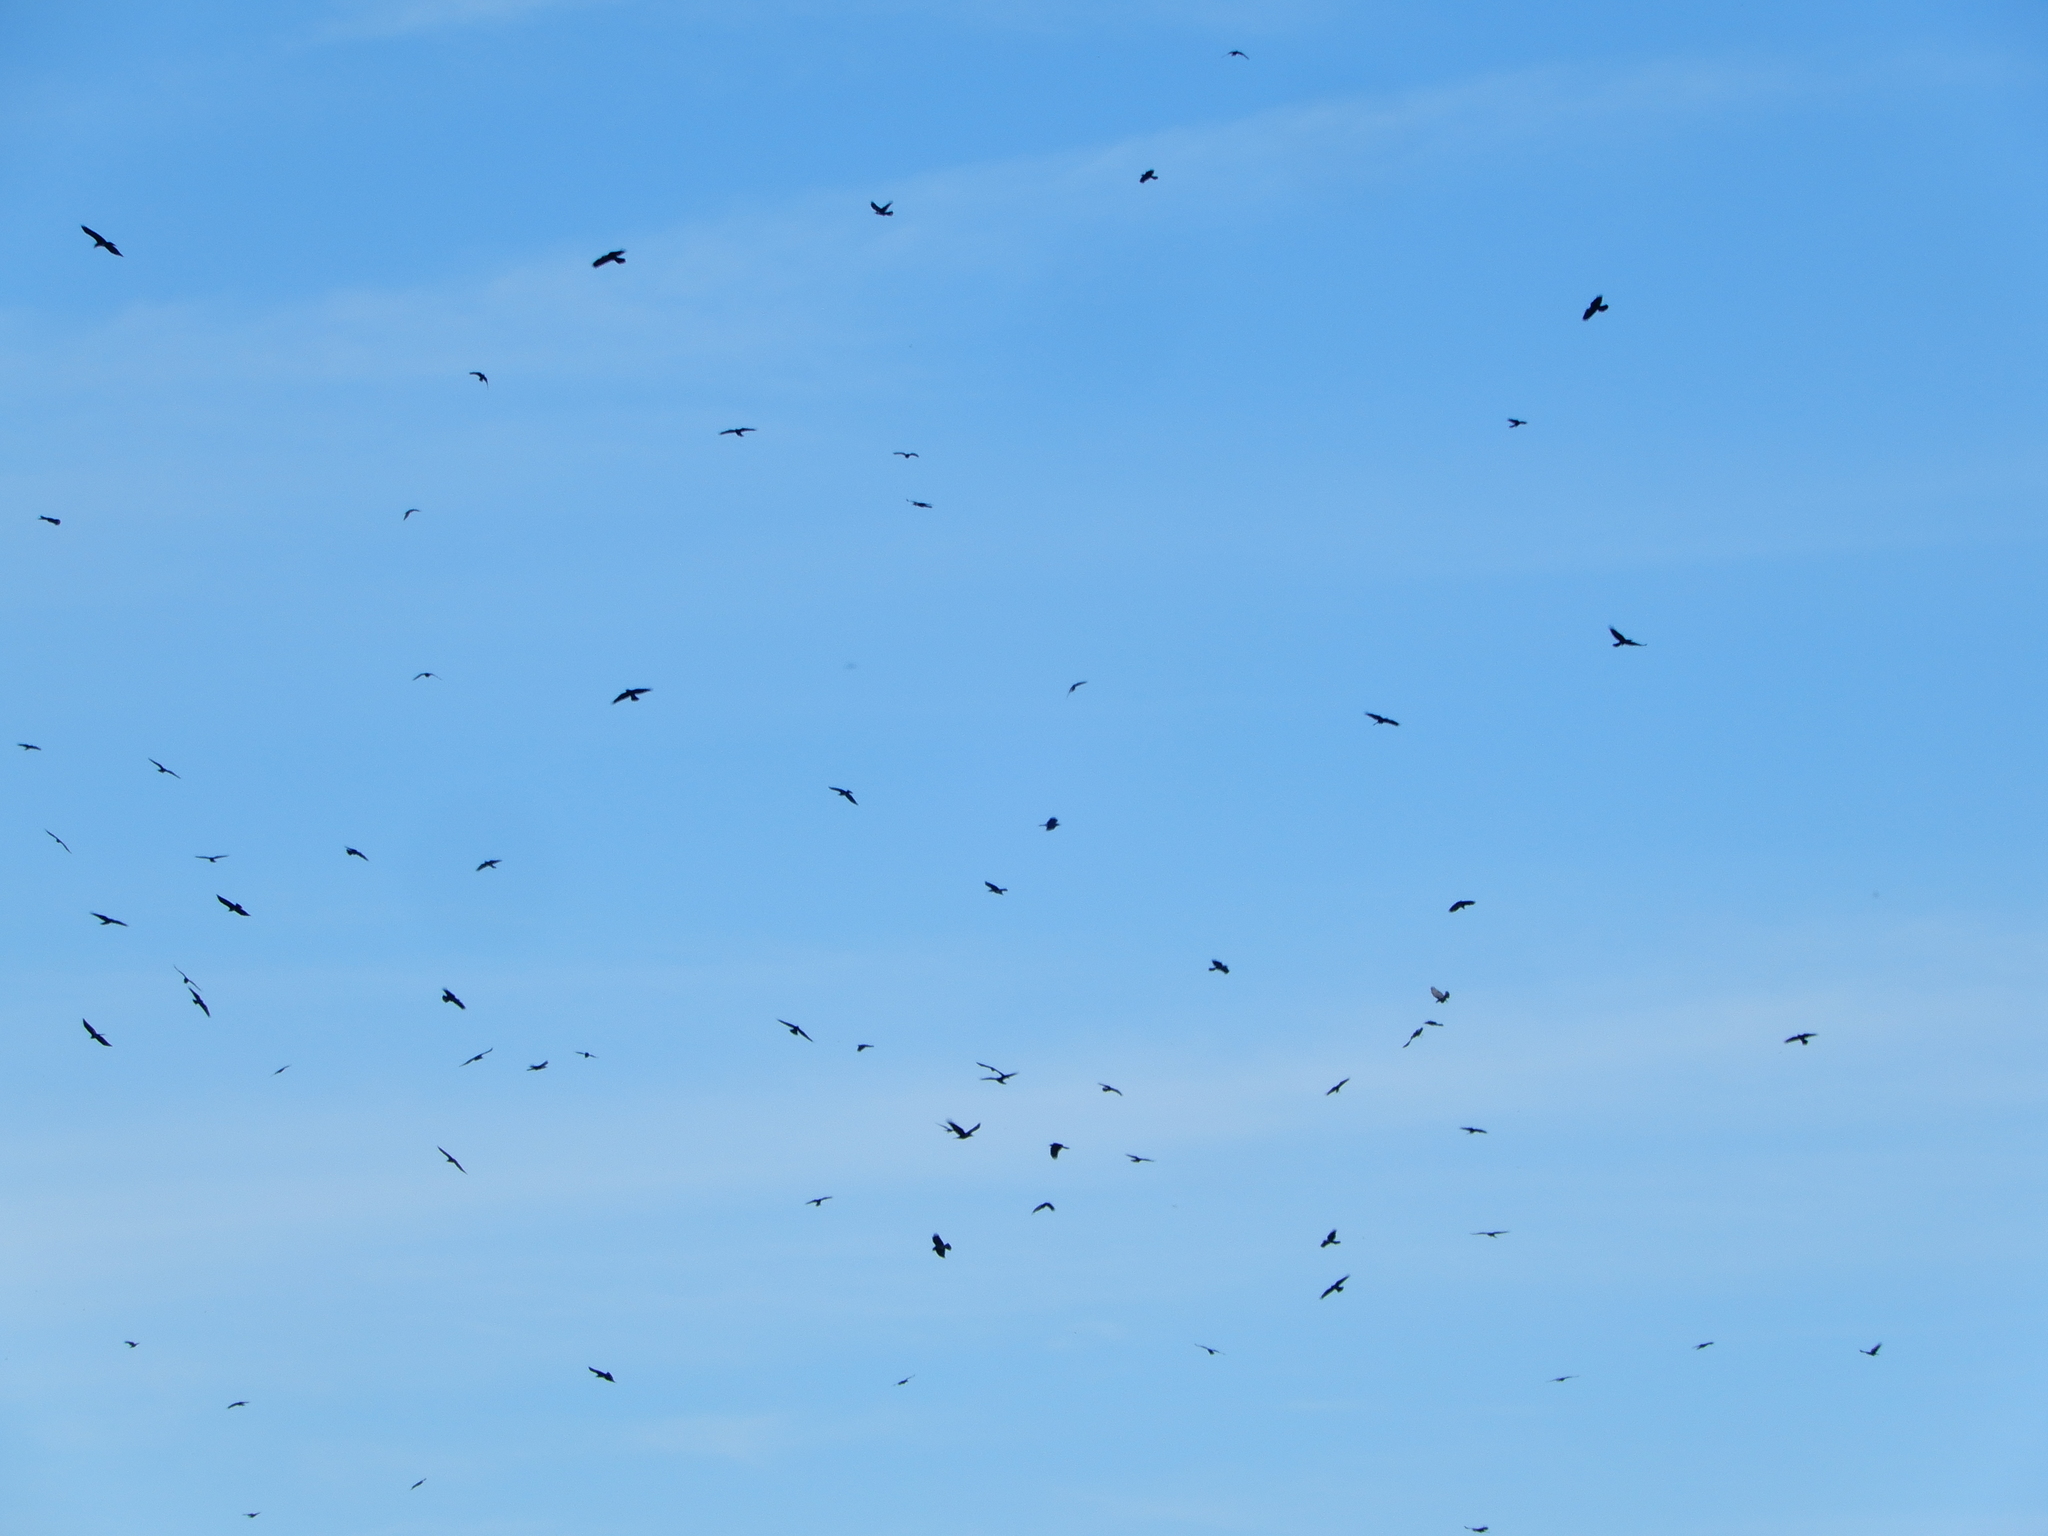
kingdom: Animalia
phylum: Chordata
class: Aves
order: Passeriformes
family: Corvidae
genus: Corvus
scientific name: Corvus ossifragus
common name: Fish crow
